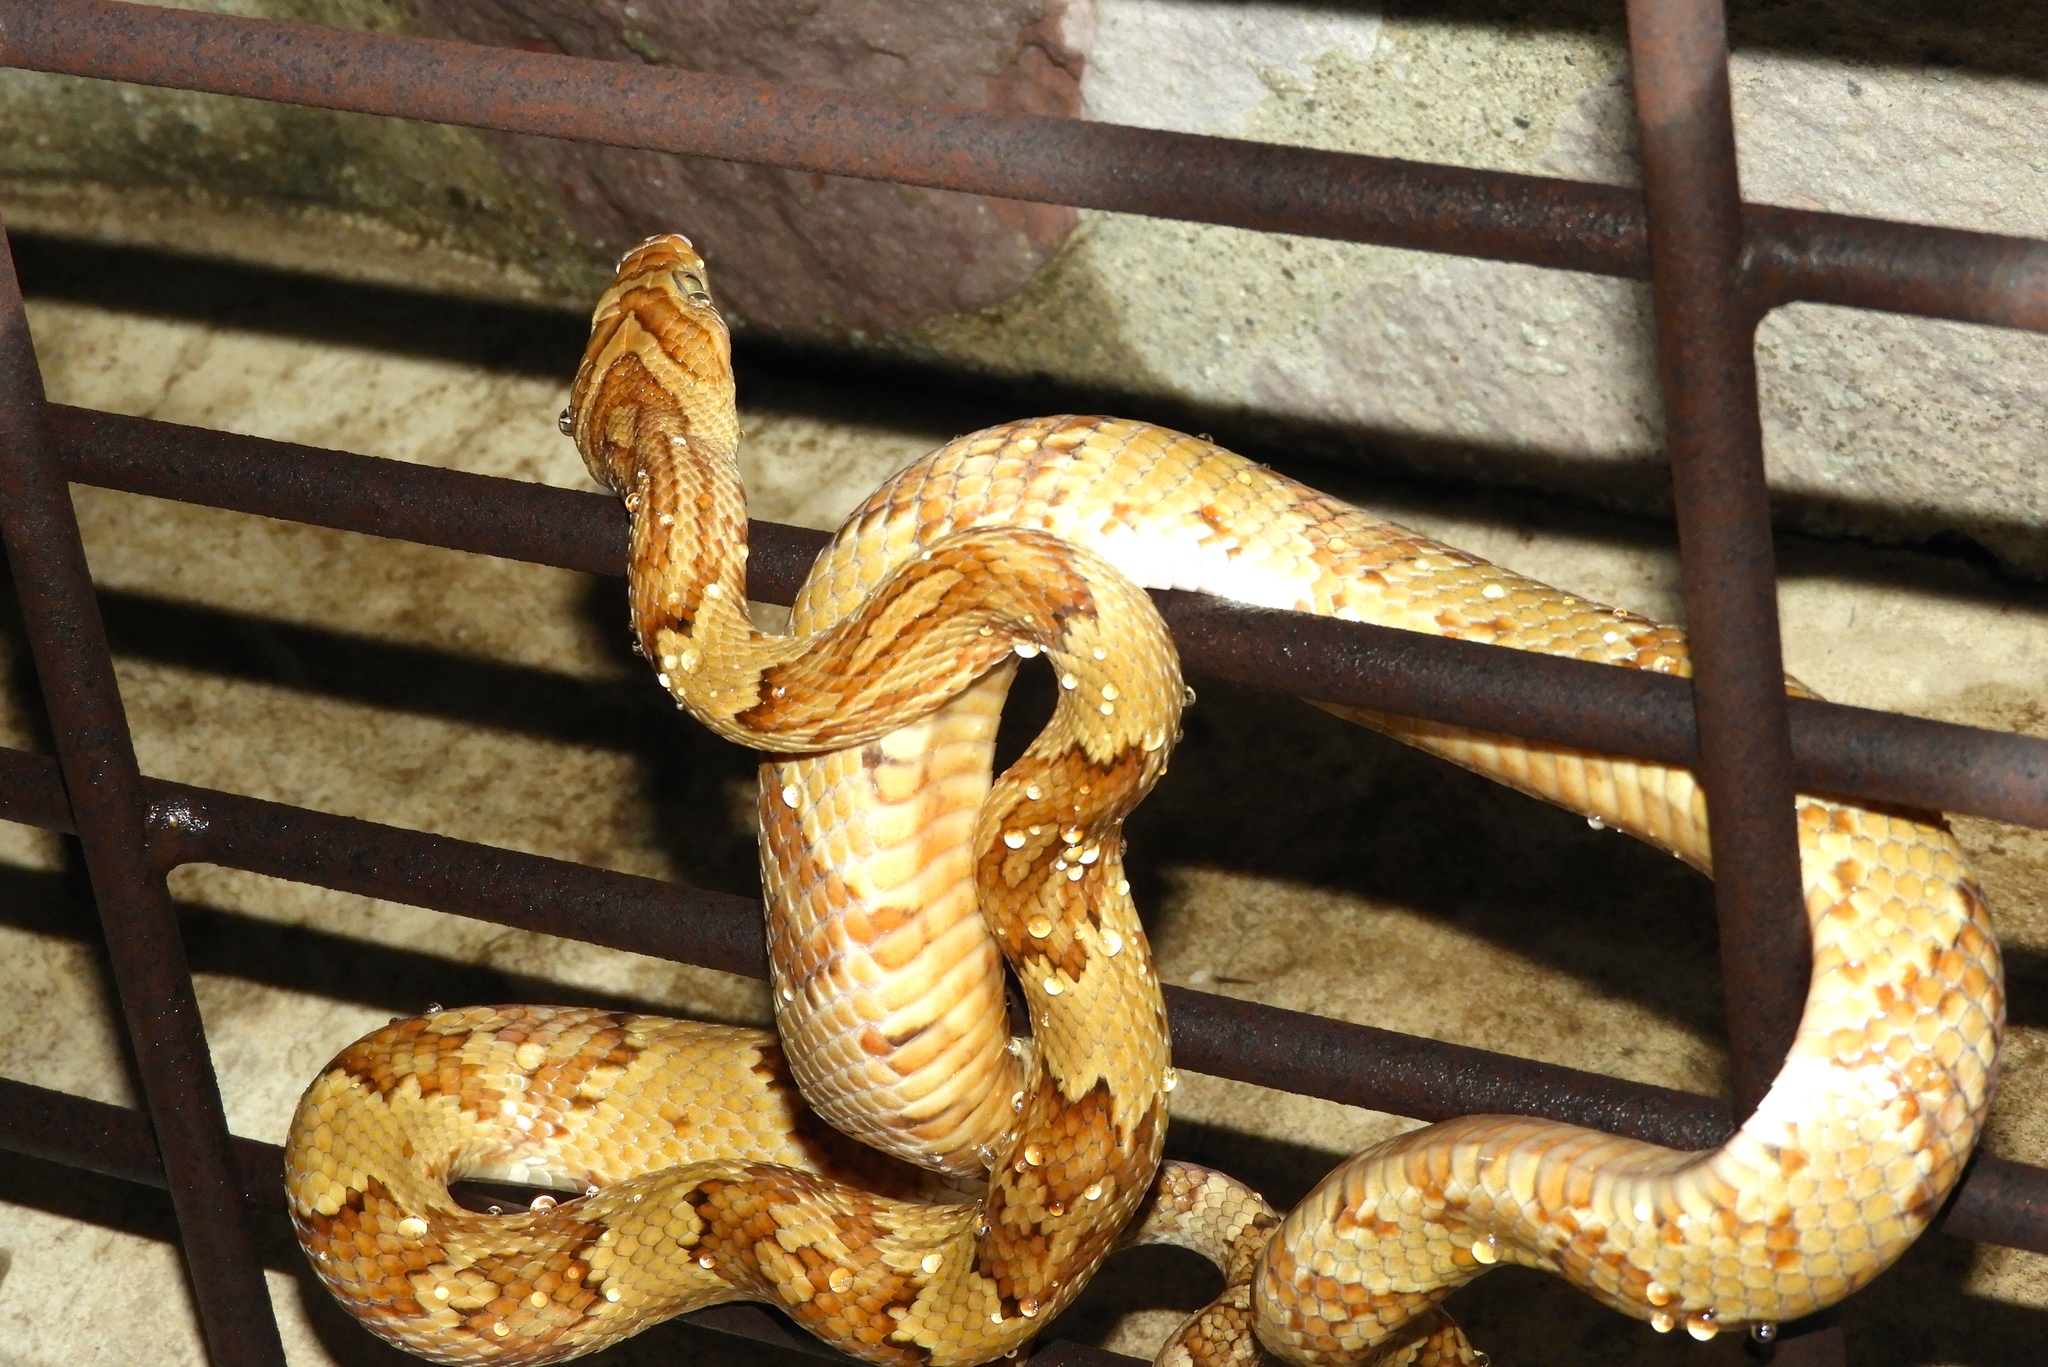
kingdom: Animalia
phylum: Chordata
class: Squamata
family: Colubridae
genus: Trimorphodon
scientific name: Trimorphodon paucimaculatus
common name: Sinaloan lyresnake
